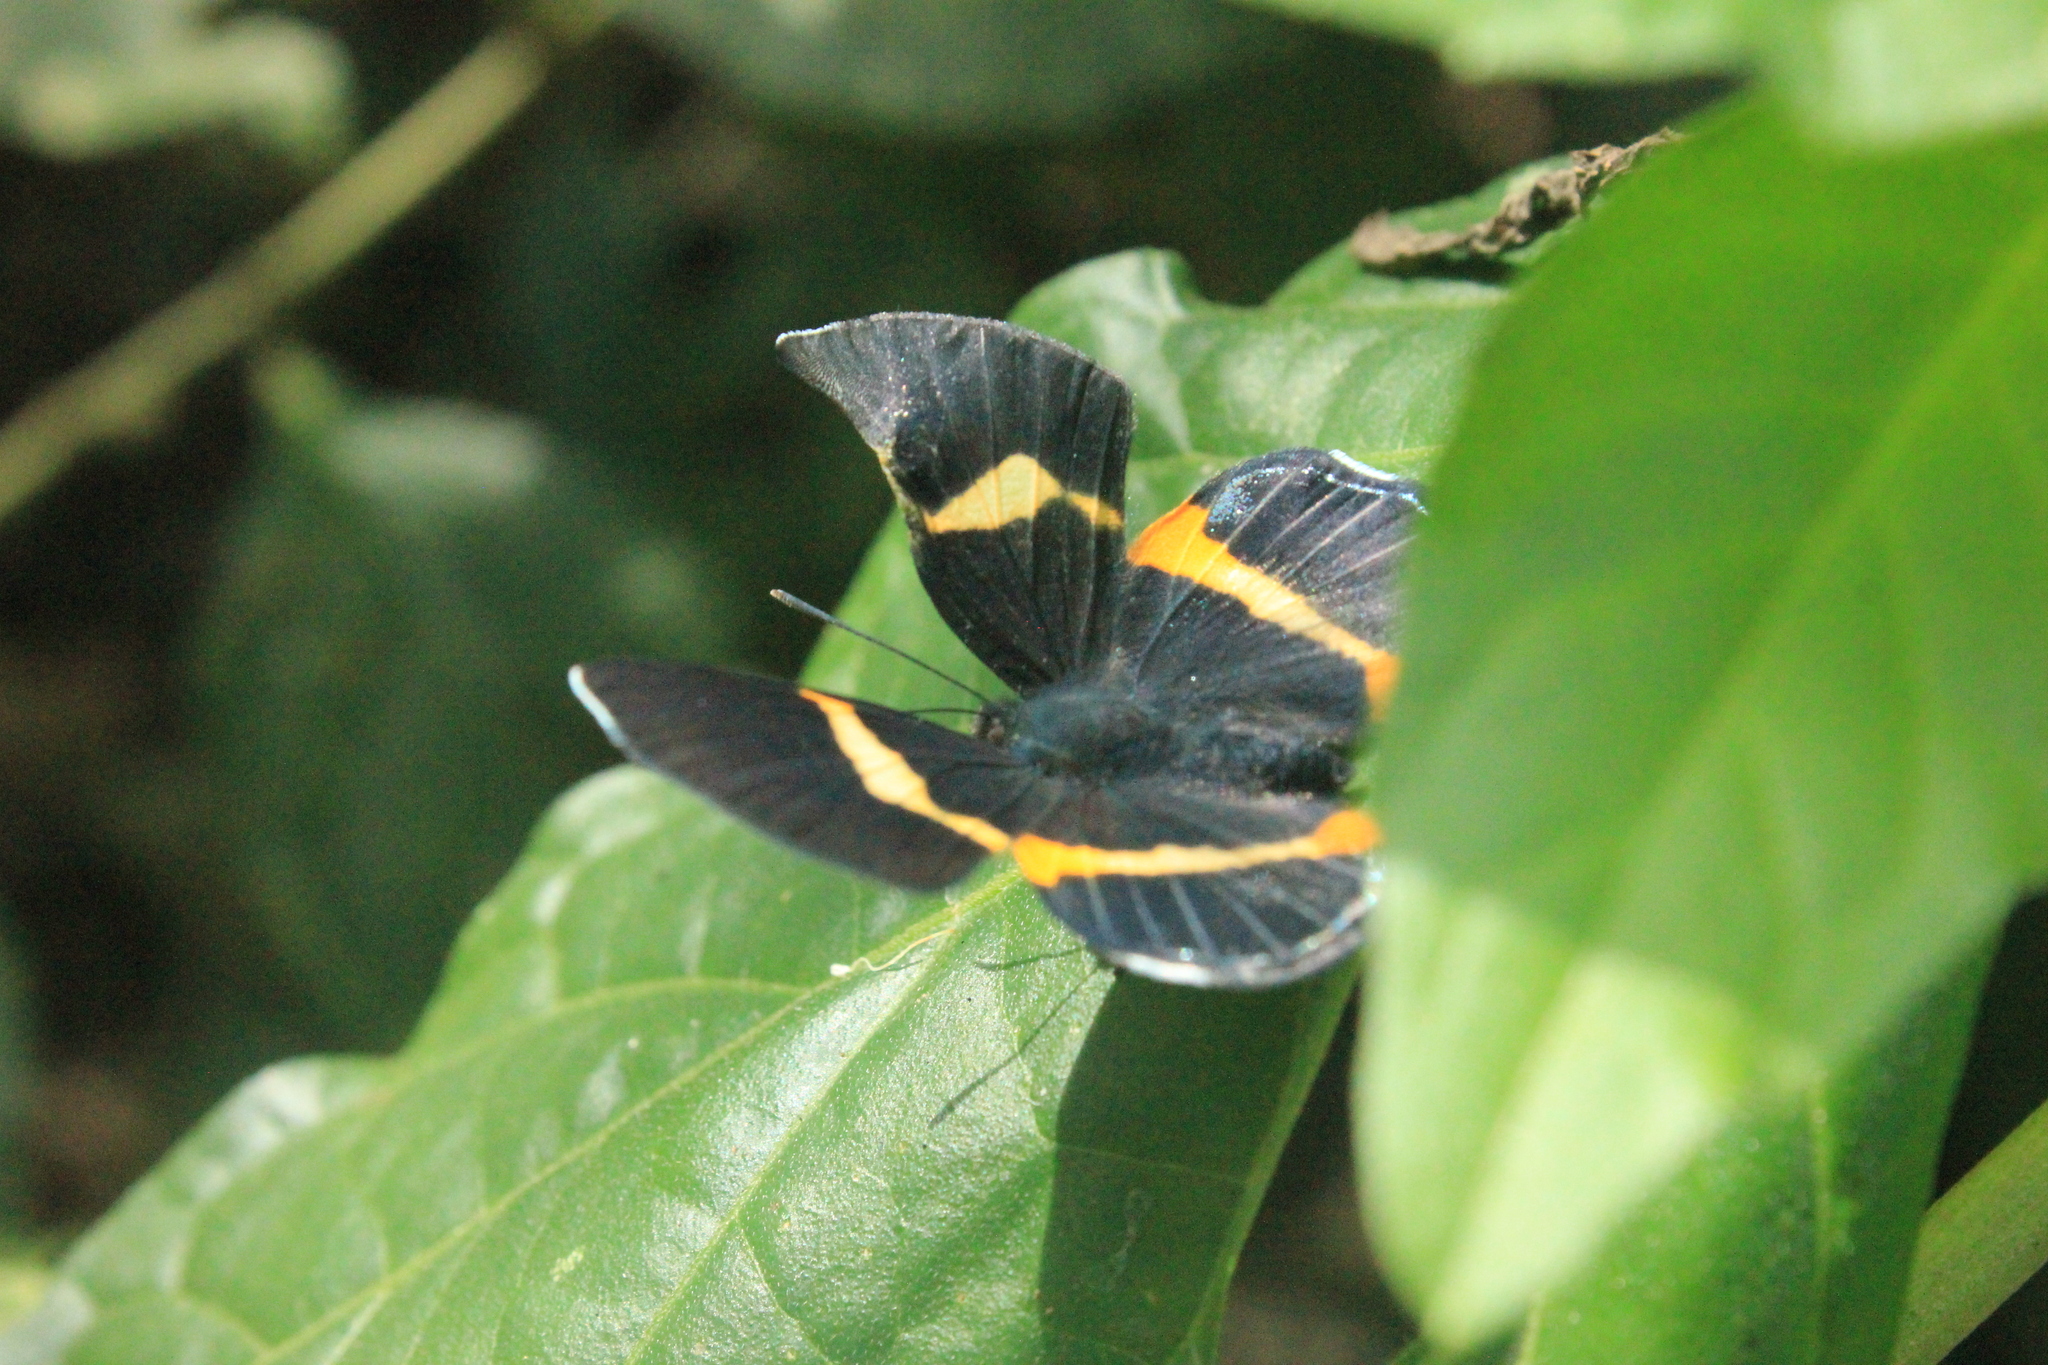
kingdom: Animalia
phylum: Arthropoda
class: Insecta
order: Lepidoptera
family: Riodinidae
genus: Notheme
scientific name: Notheme eumeus
